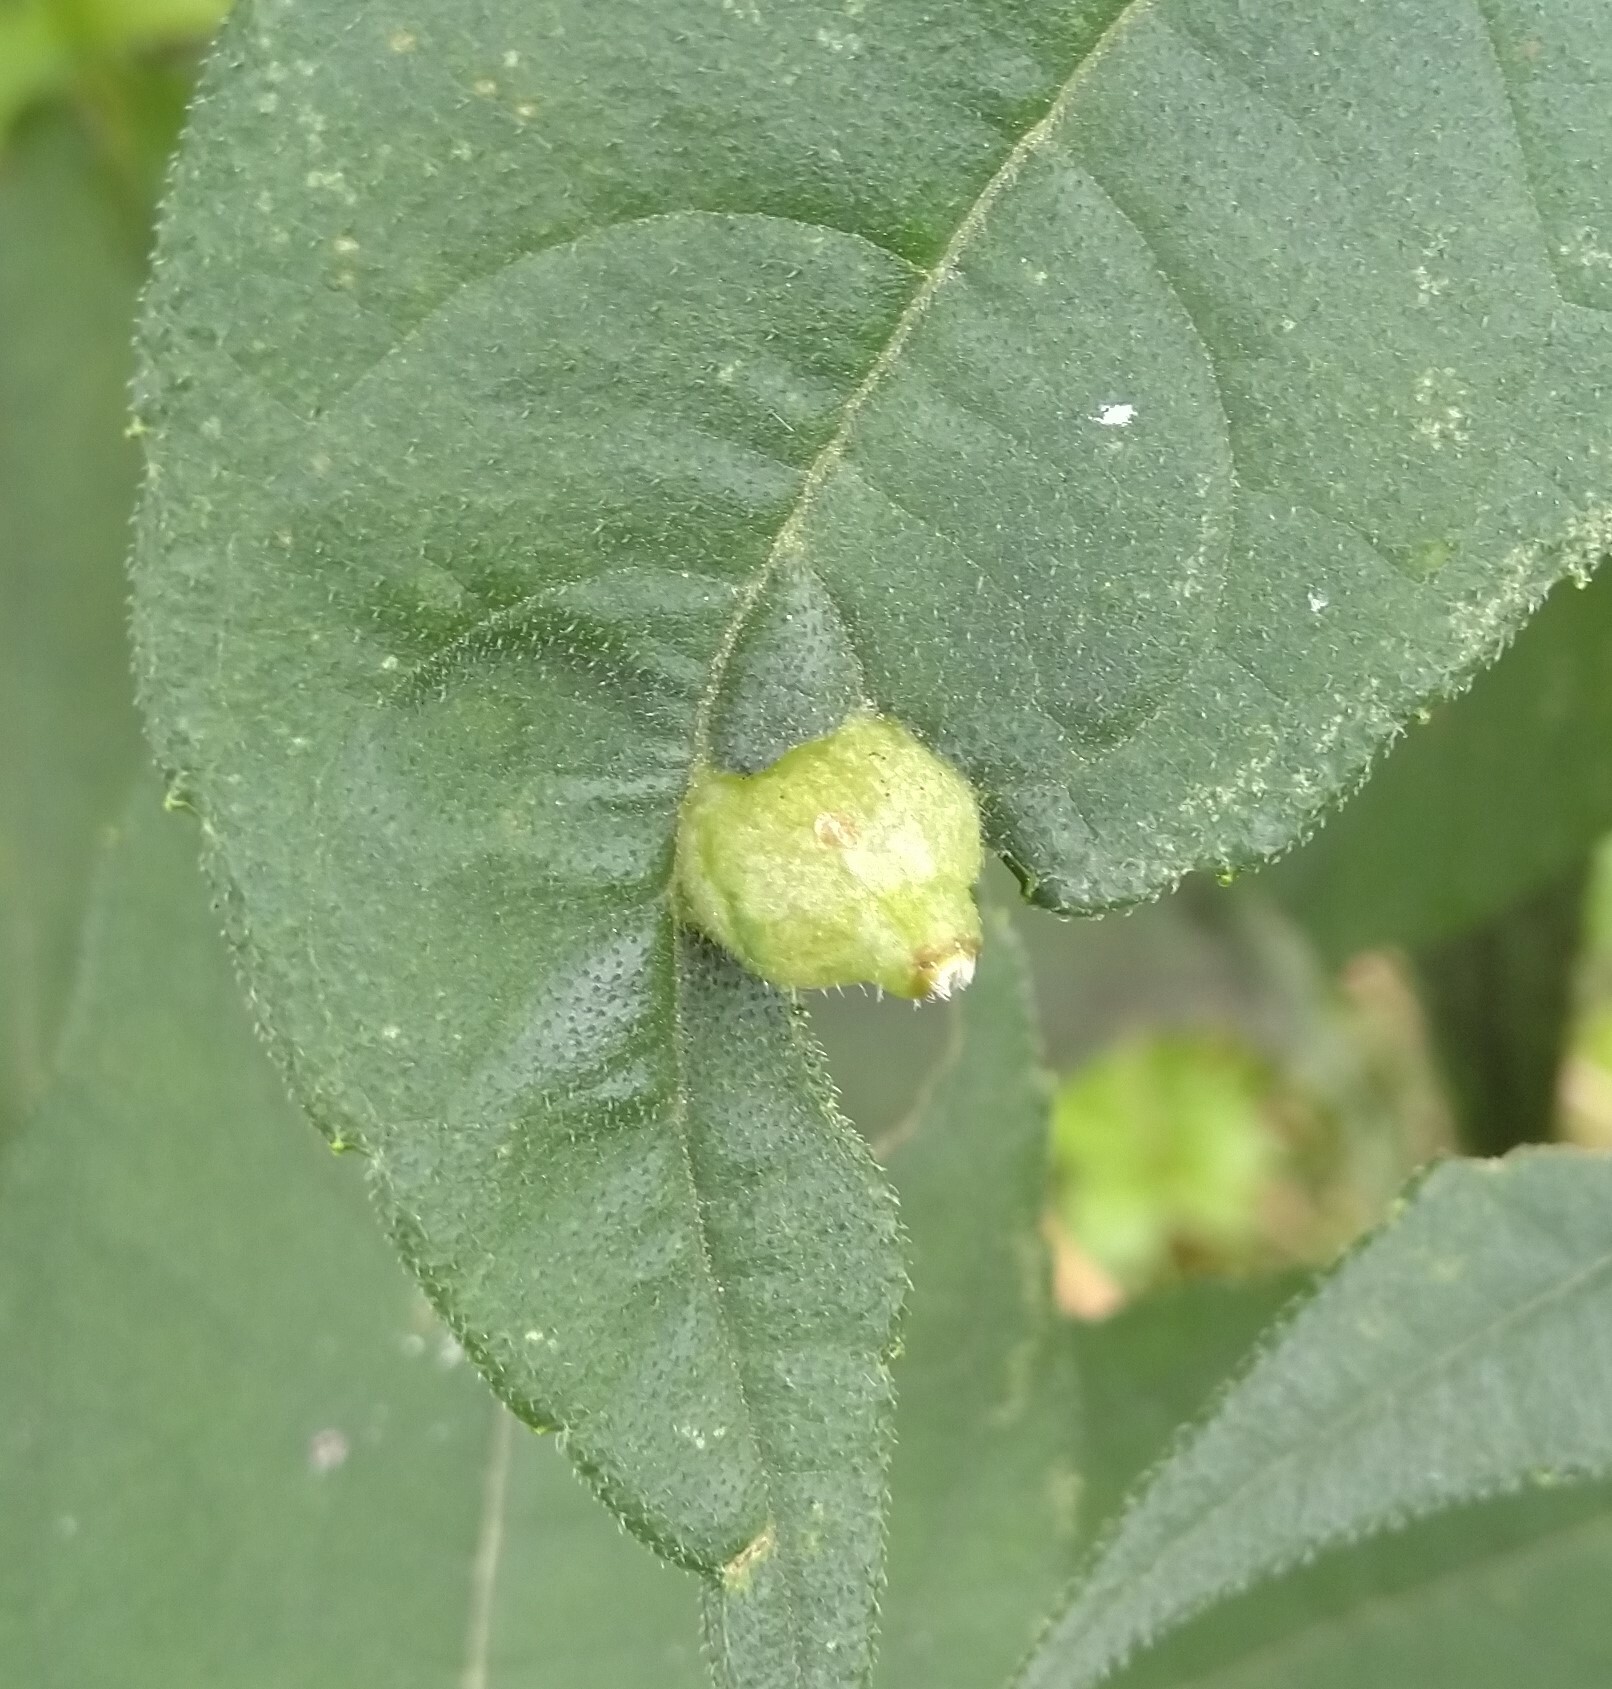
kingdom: Animalia
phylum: Arthropoda
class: Insecta
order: Diptera
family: Cecidomyiidae
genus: Pilodiplosis
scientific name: Pilodiplosis helianthibulla
